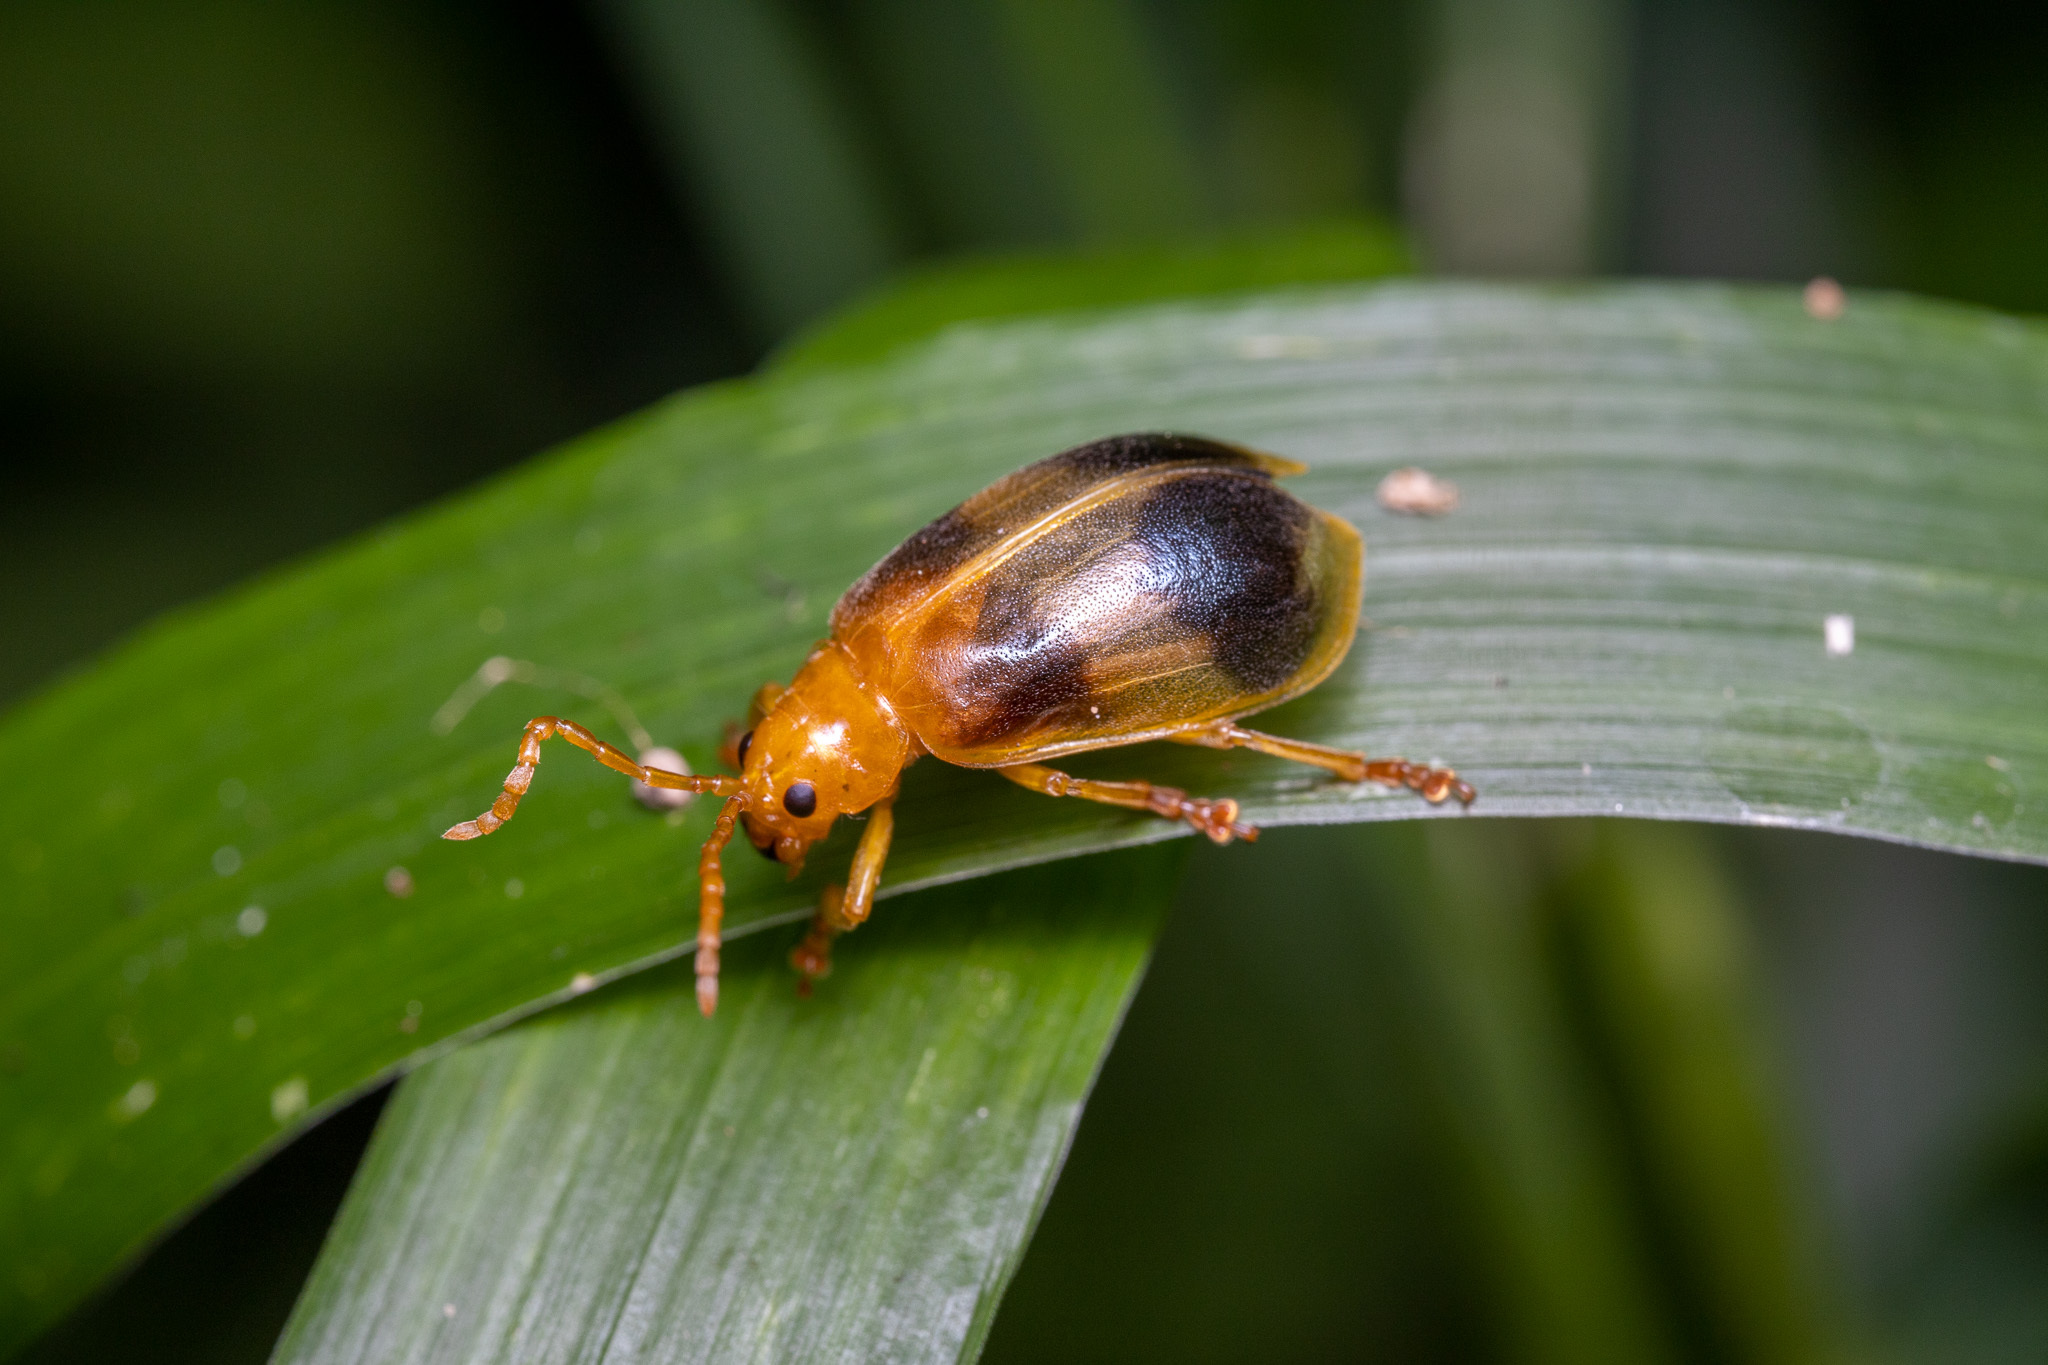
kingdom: Animalia
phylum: Arthropoda
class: Insecta
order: Coleoptera
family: Chrysomelidae
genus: Monocesta
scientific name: Monocesta coryli
